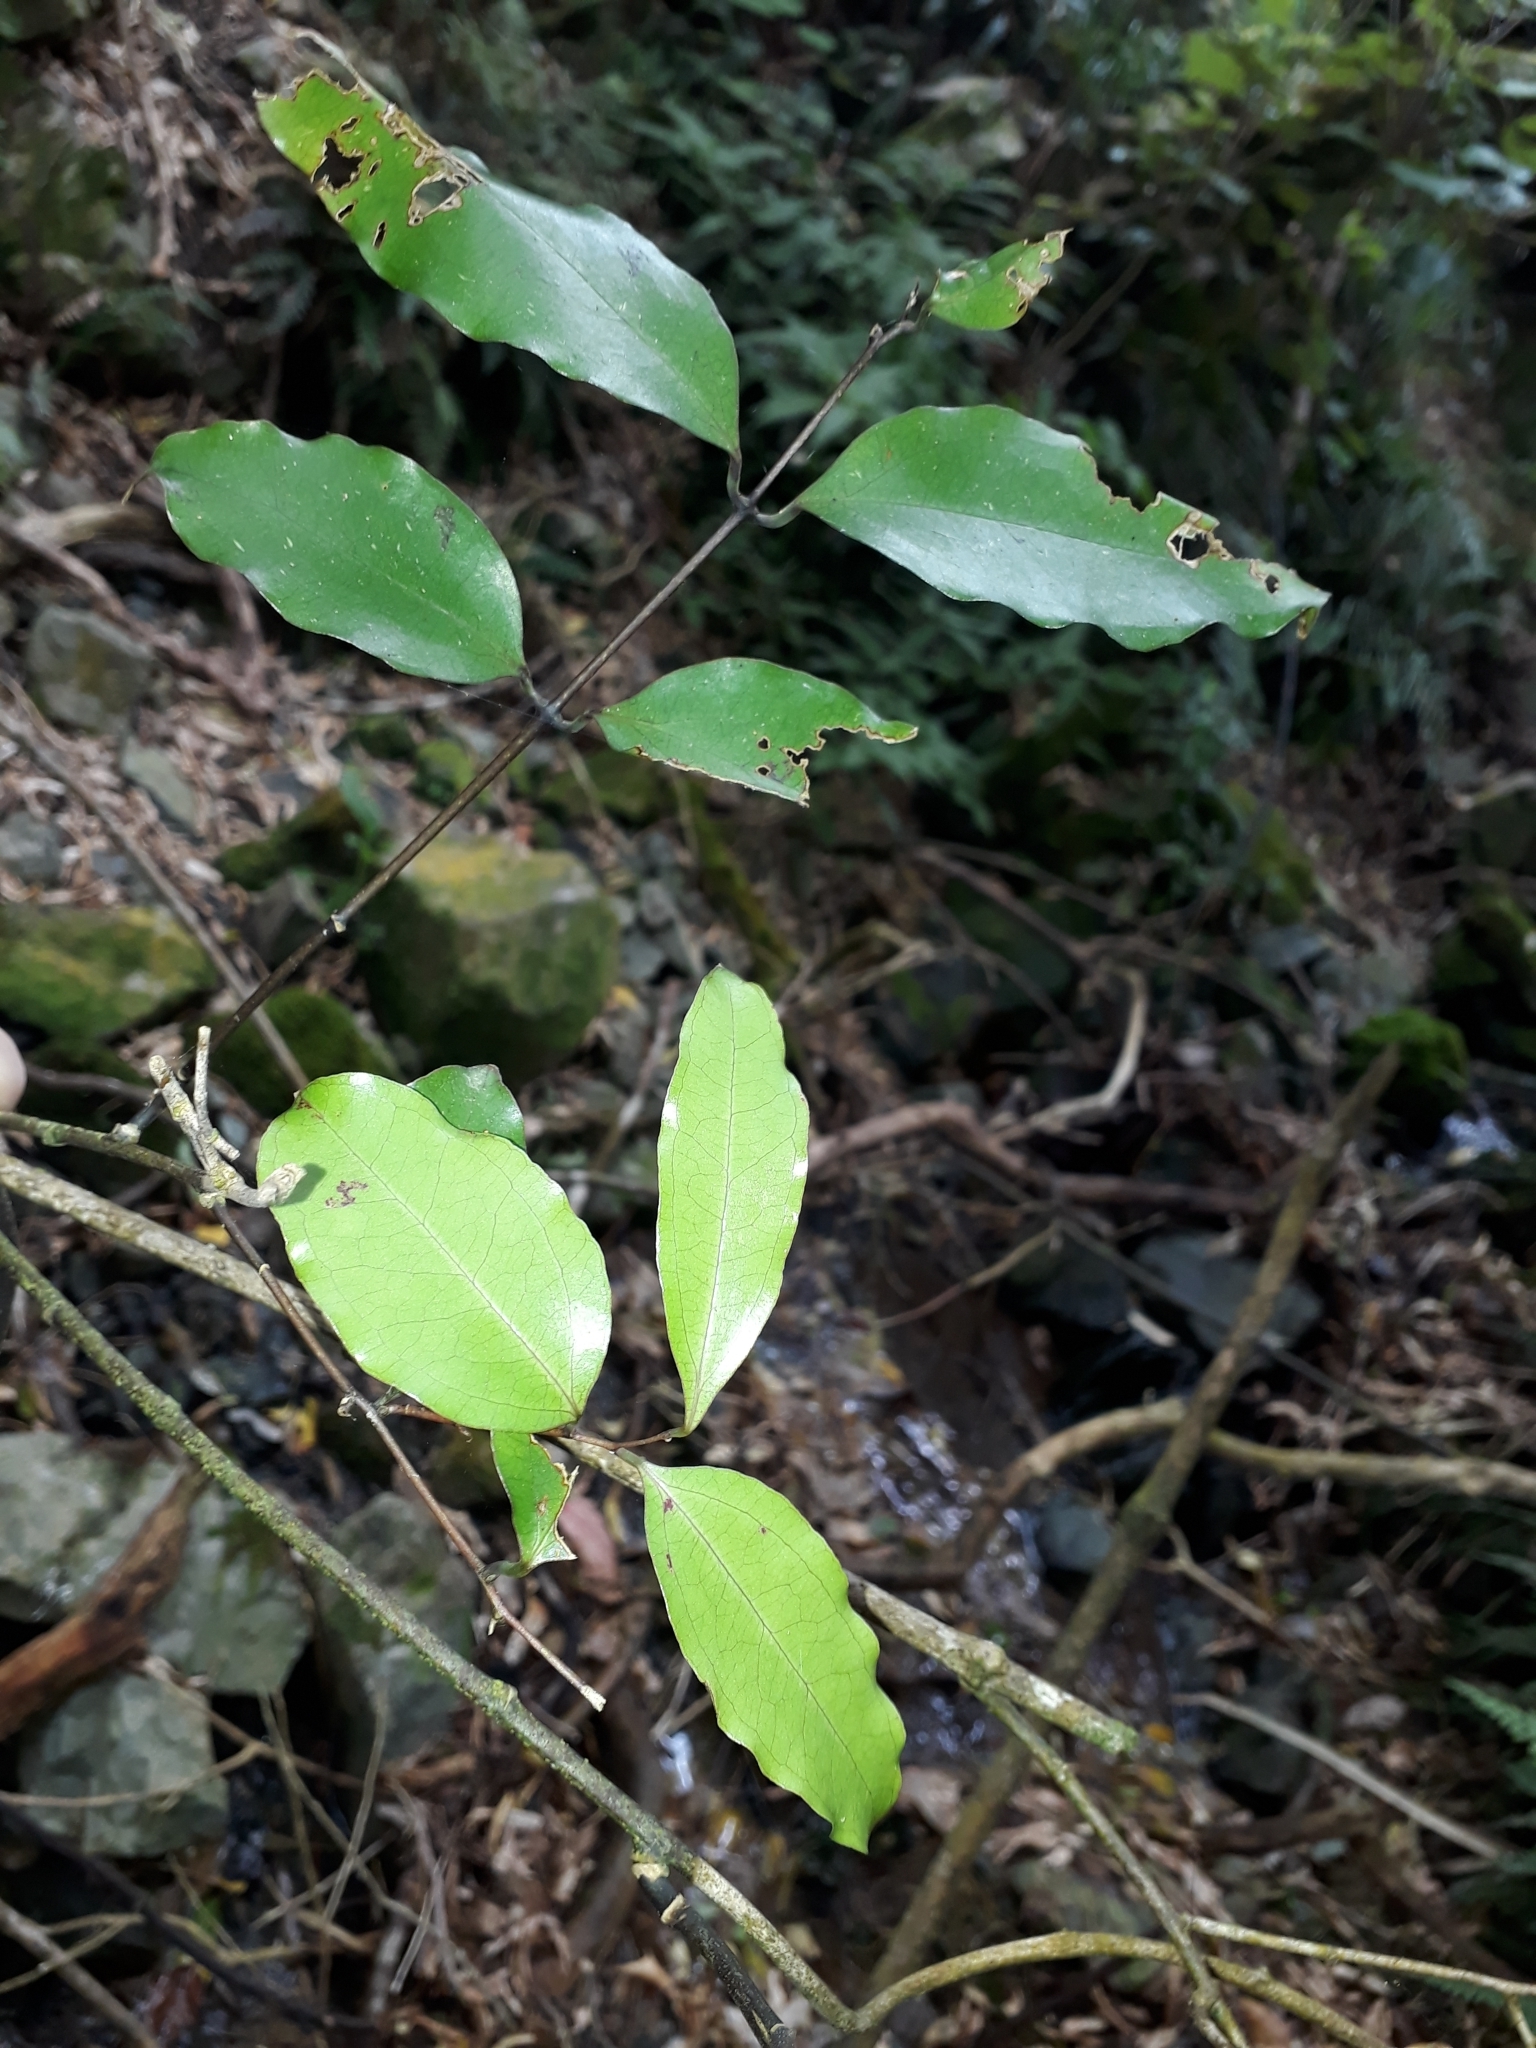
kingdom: Plantae
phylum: Tracheophyta
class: Liliopsida
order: Liliales
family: Ripogonaceae
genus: Ripogonum
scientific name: Ripogonum scandens
